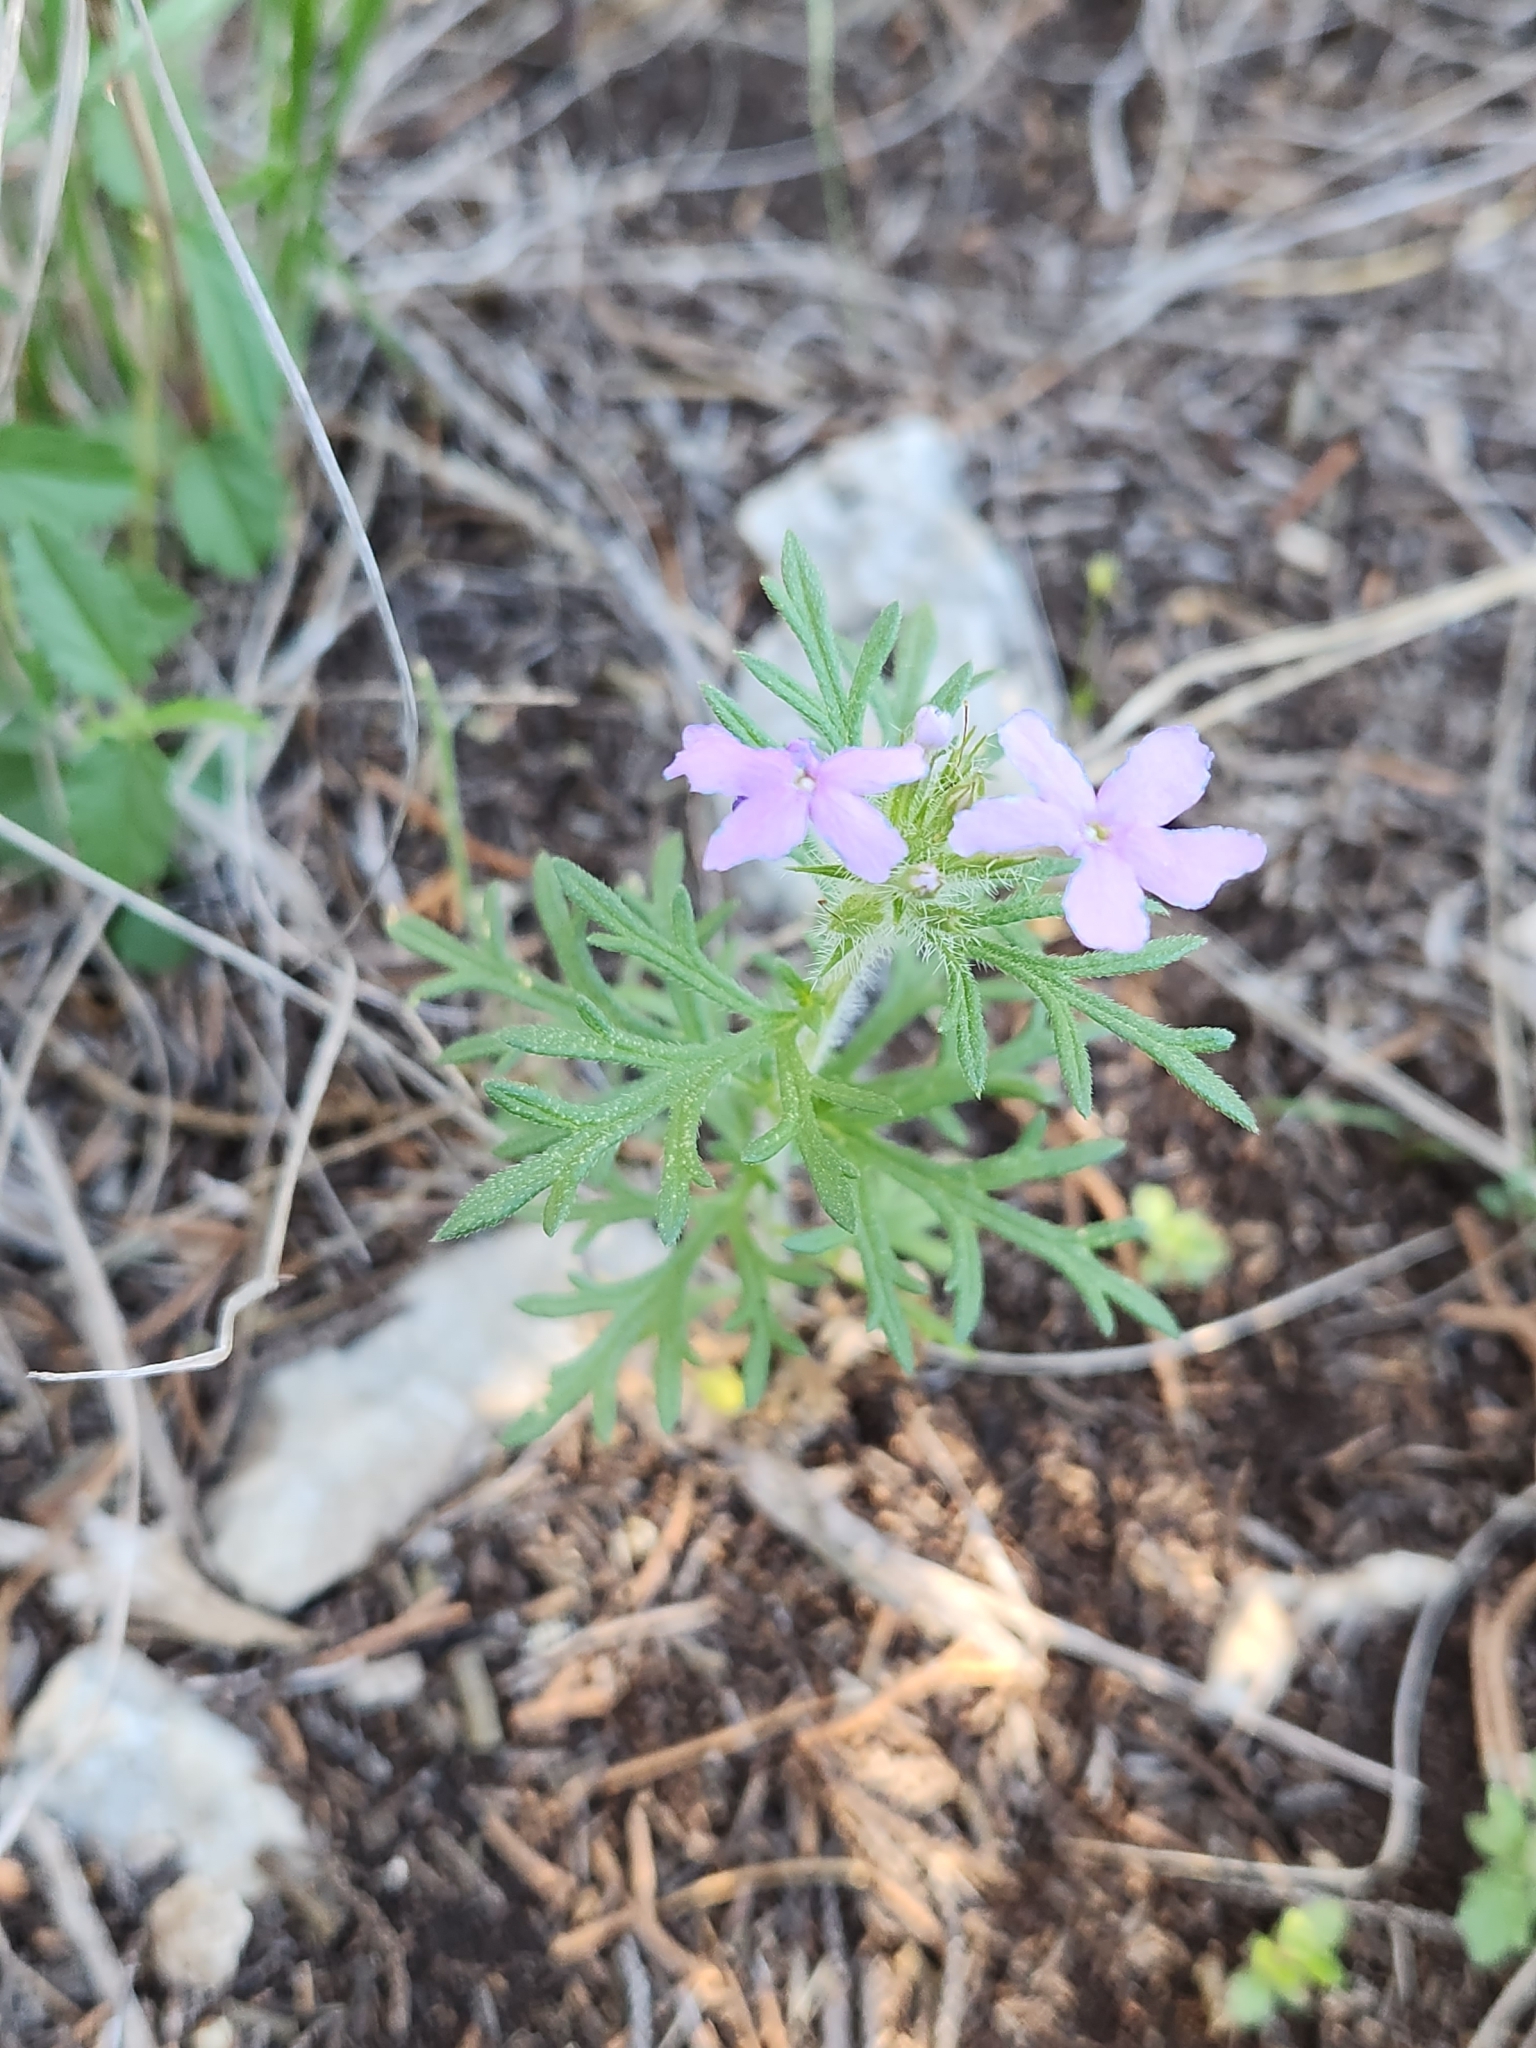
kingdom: Plantae
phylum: Tracheophyta
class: Magnoliopsida
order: Lamiales
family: Verbenaceae
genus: Verbena
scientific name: Verbena bipinnatifida
